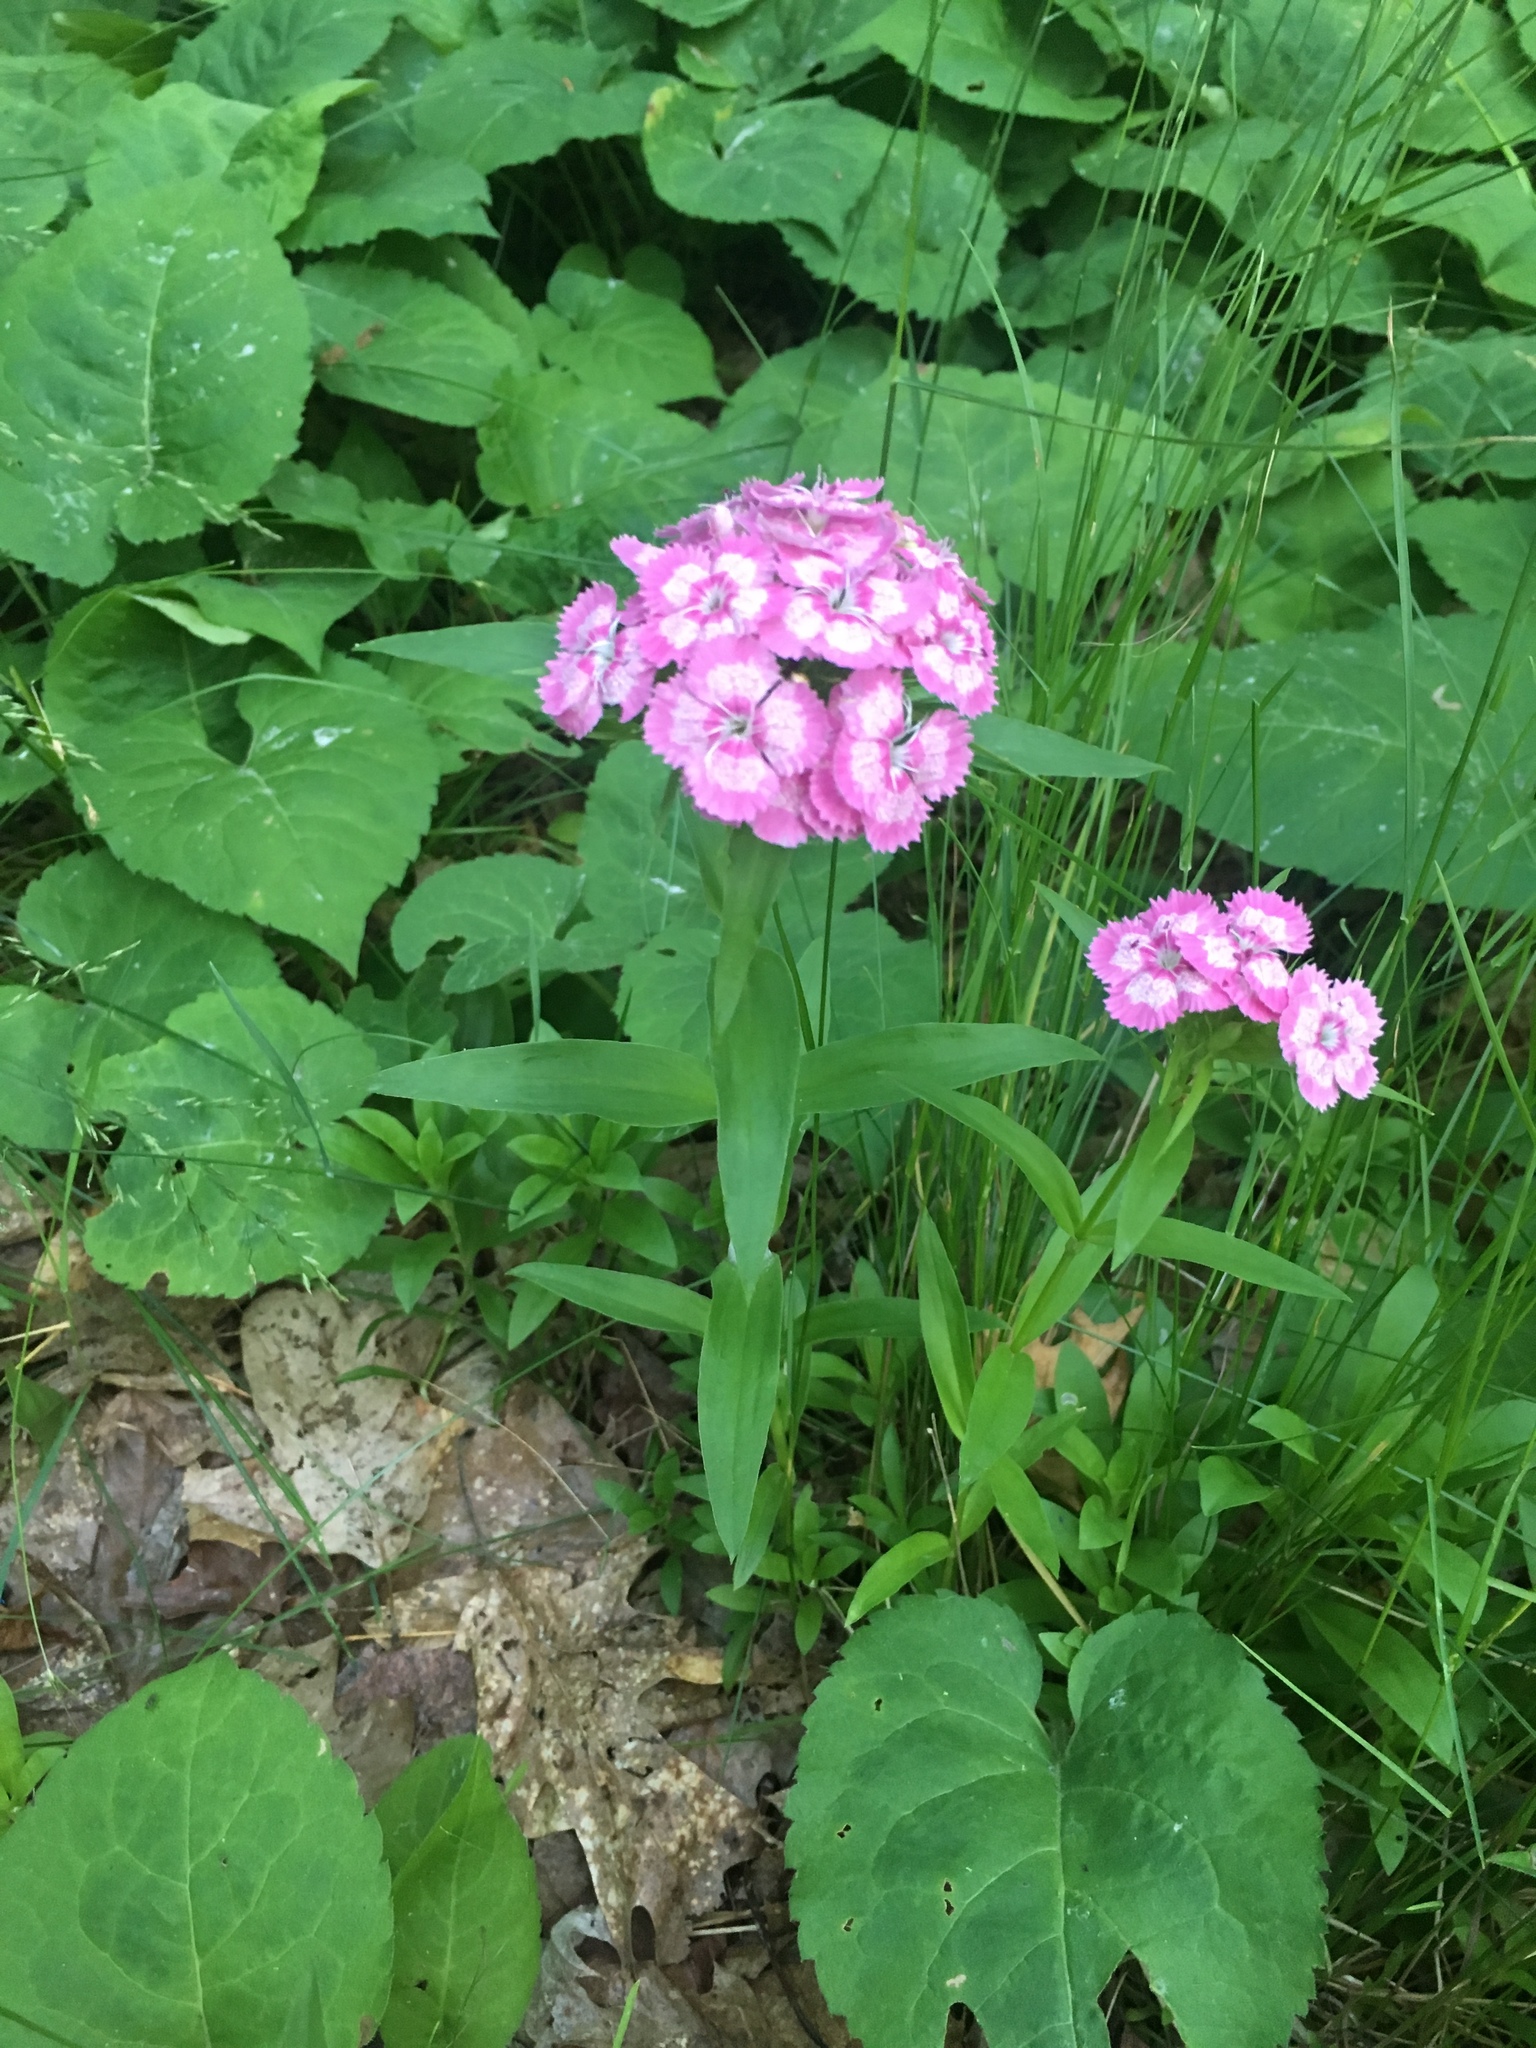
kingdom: Plantae
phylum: Tracheophyta
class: Magnoliopsida
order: Caryophyllales
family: Caryophyllaceae
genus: Dianthus
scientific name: Dianthus barbatus
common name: Sweet-william
